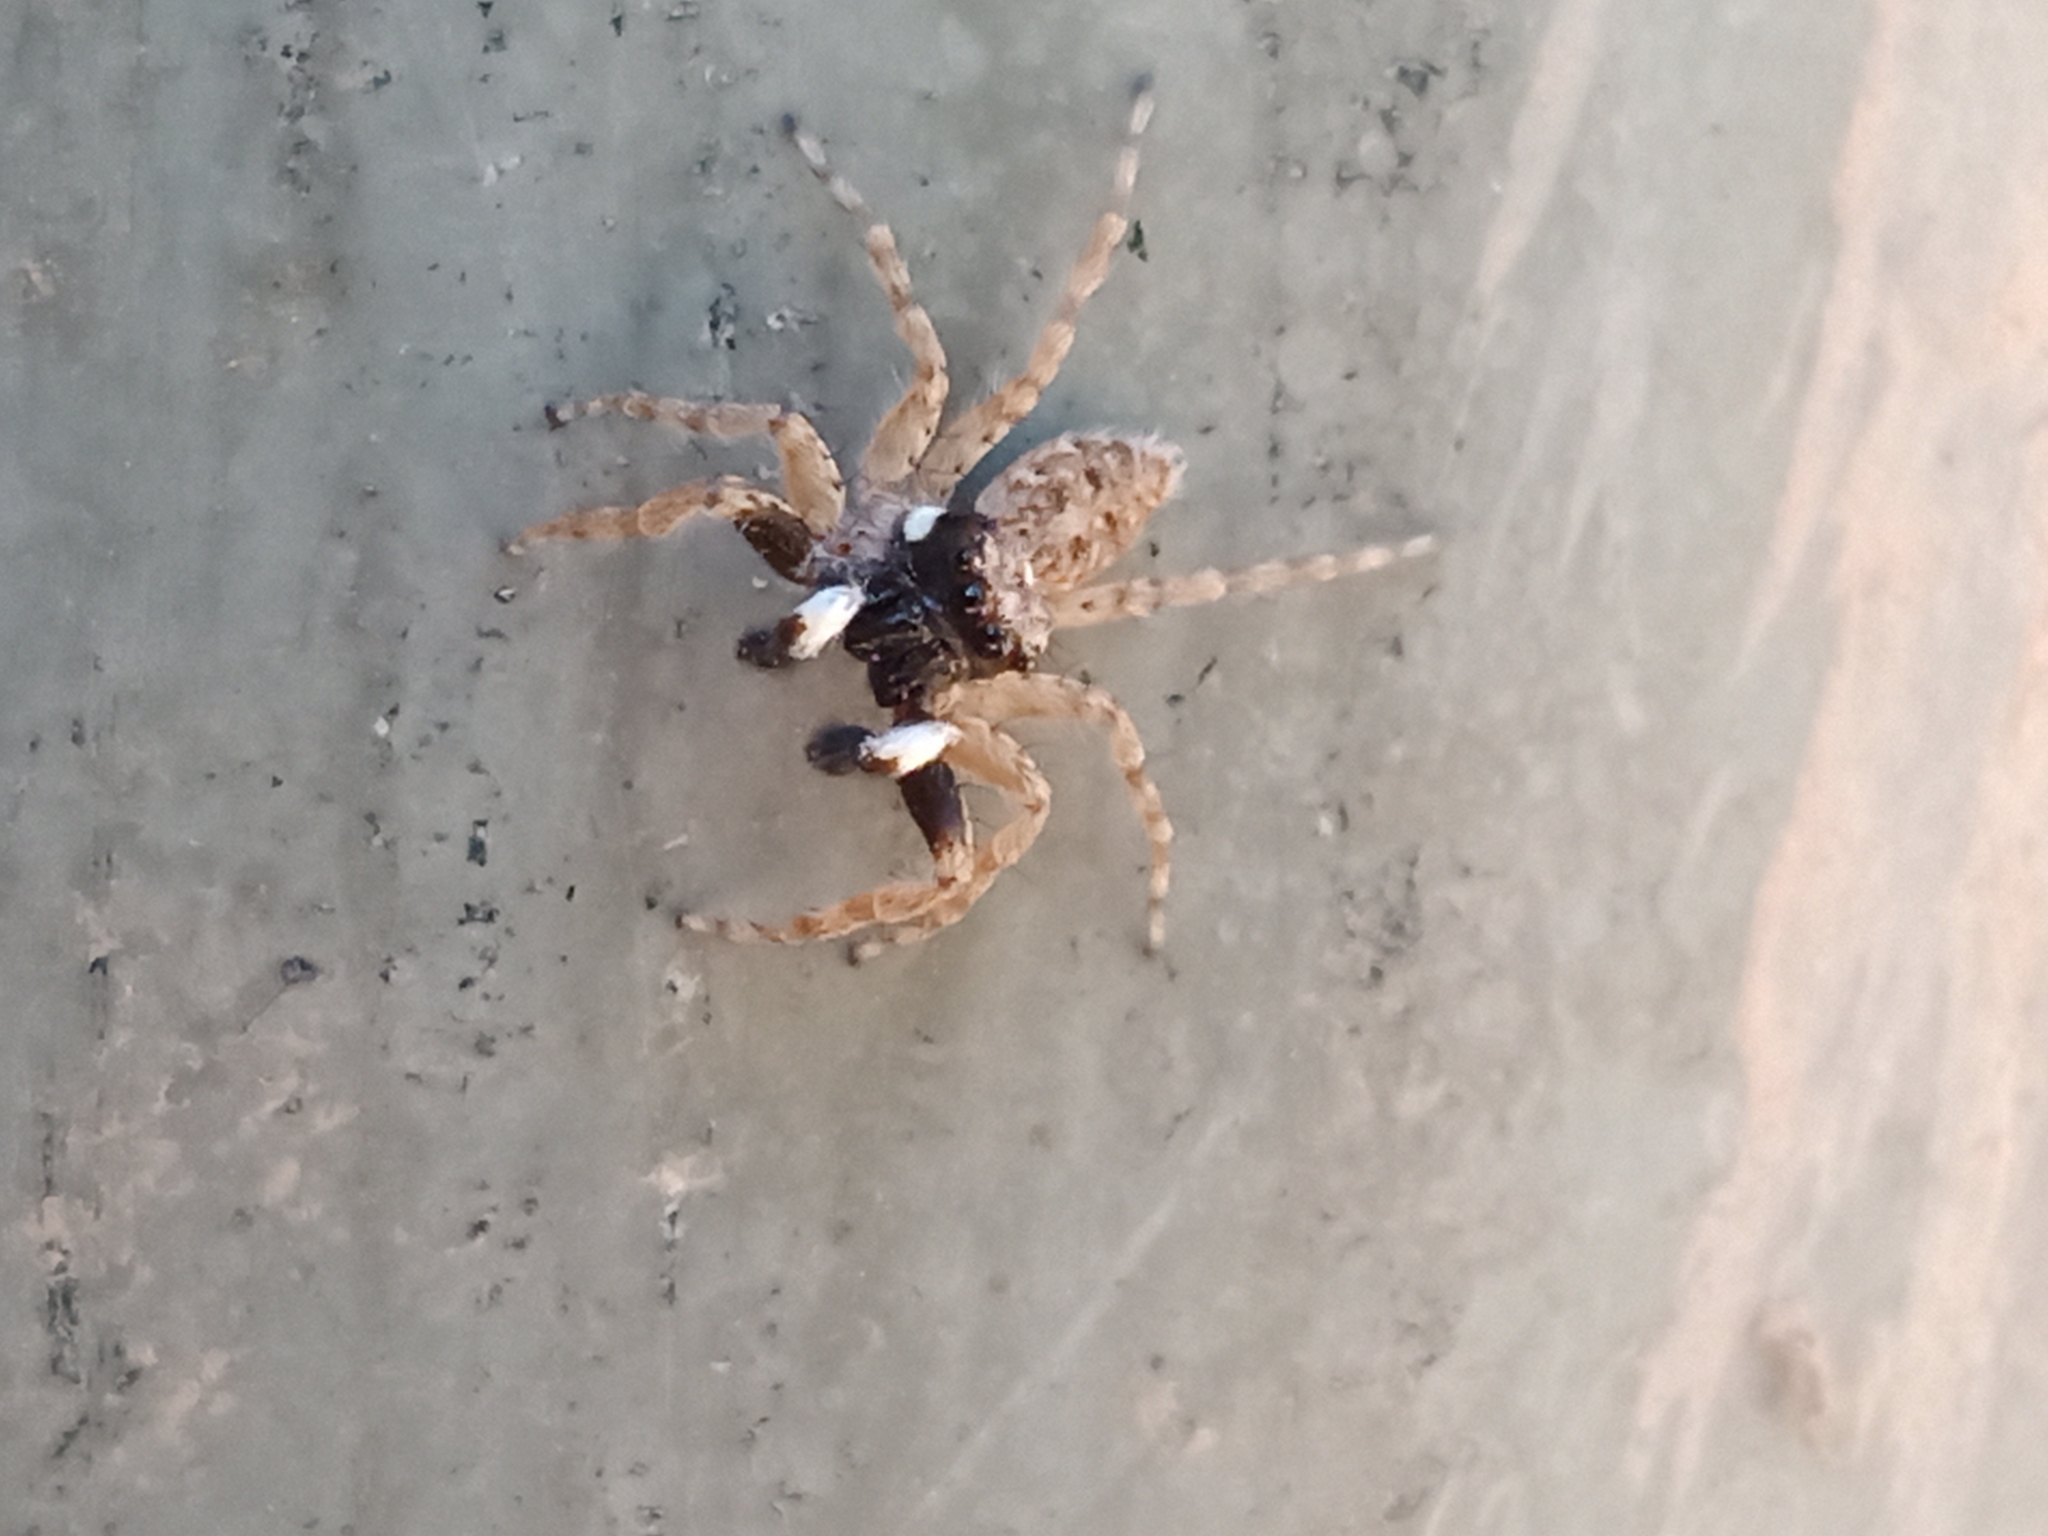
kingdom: Animalia
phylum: Arthropoda
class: Arachnida
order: Araneae
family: Salticidae
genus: Menemerus
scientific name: Menemerus semilimbatus
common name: Jumping spider
